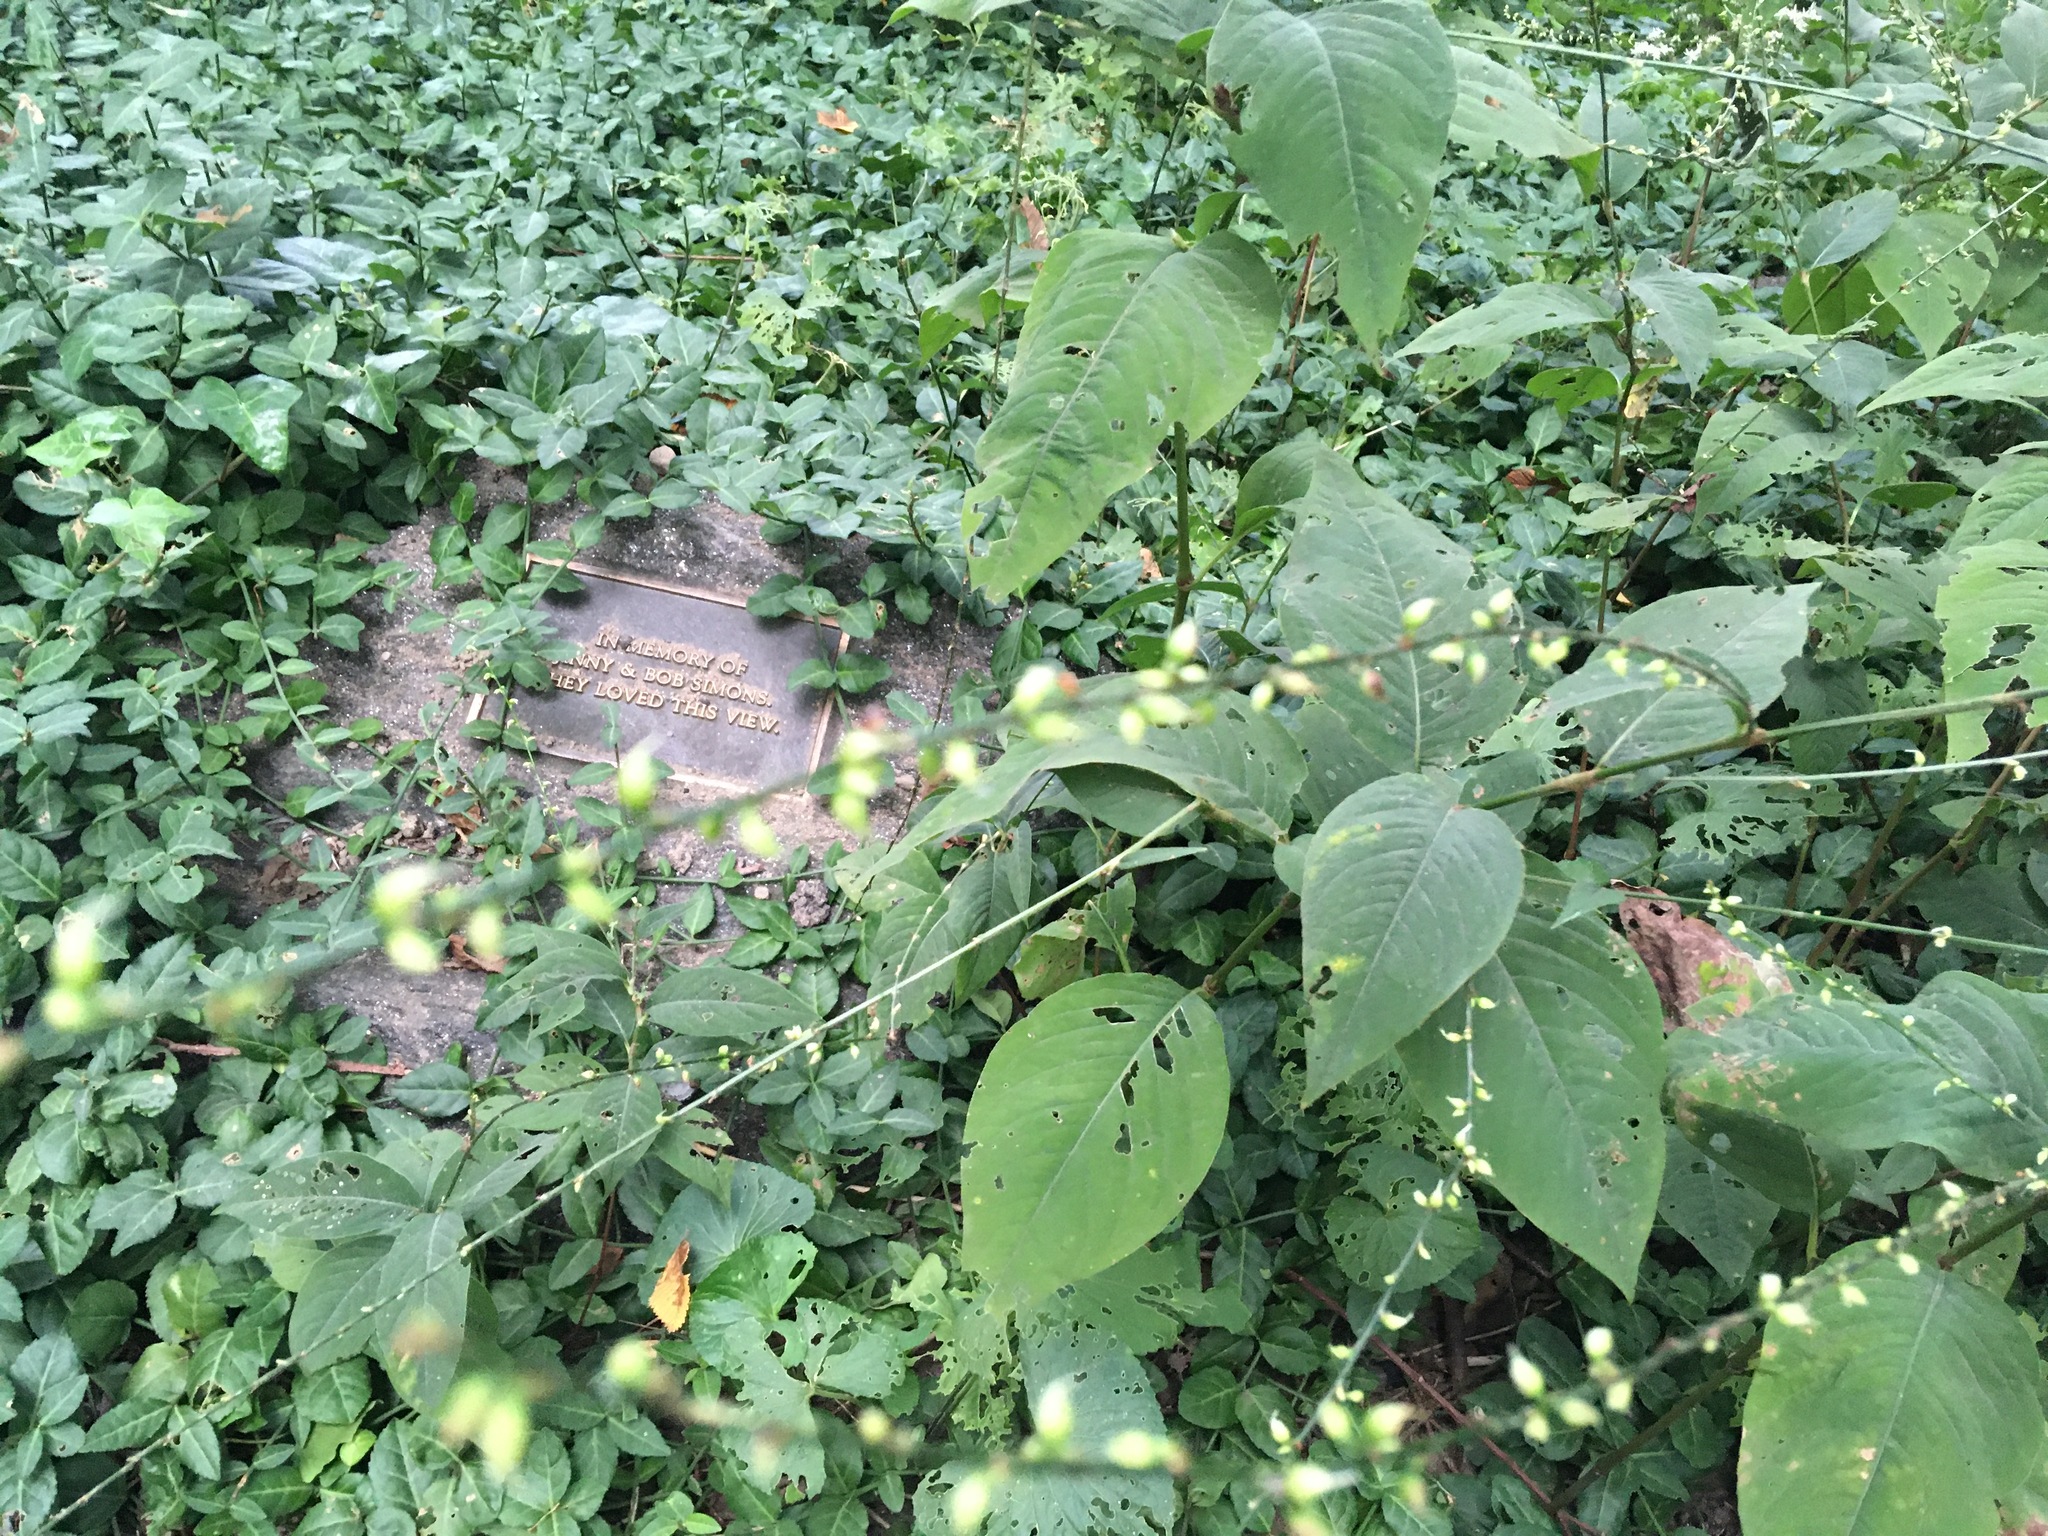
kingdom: Plantae
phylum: Tracheophyta
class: Magnoliopsida
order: Caryophyllales
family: Polygonaceae
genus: Persicaria
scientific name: Persicaria virginiana
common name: Jumpseed
